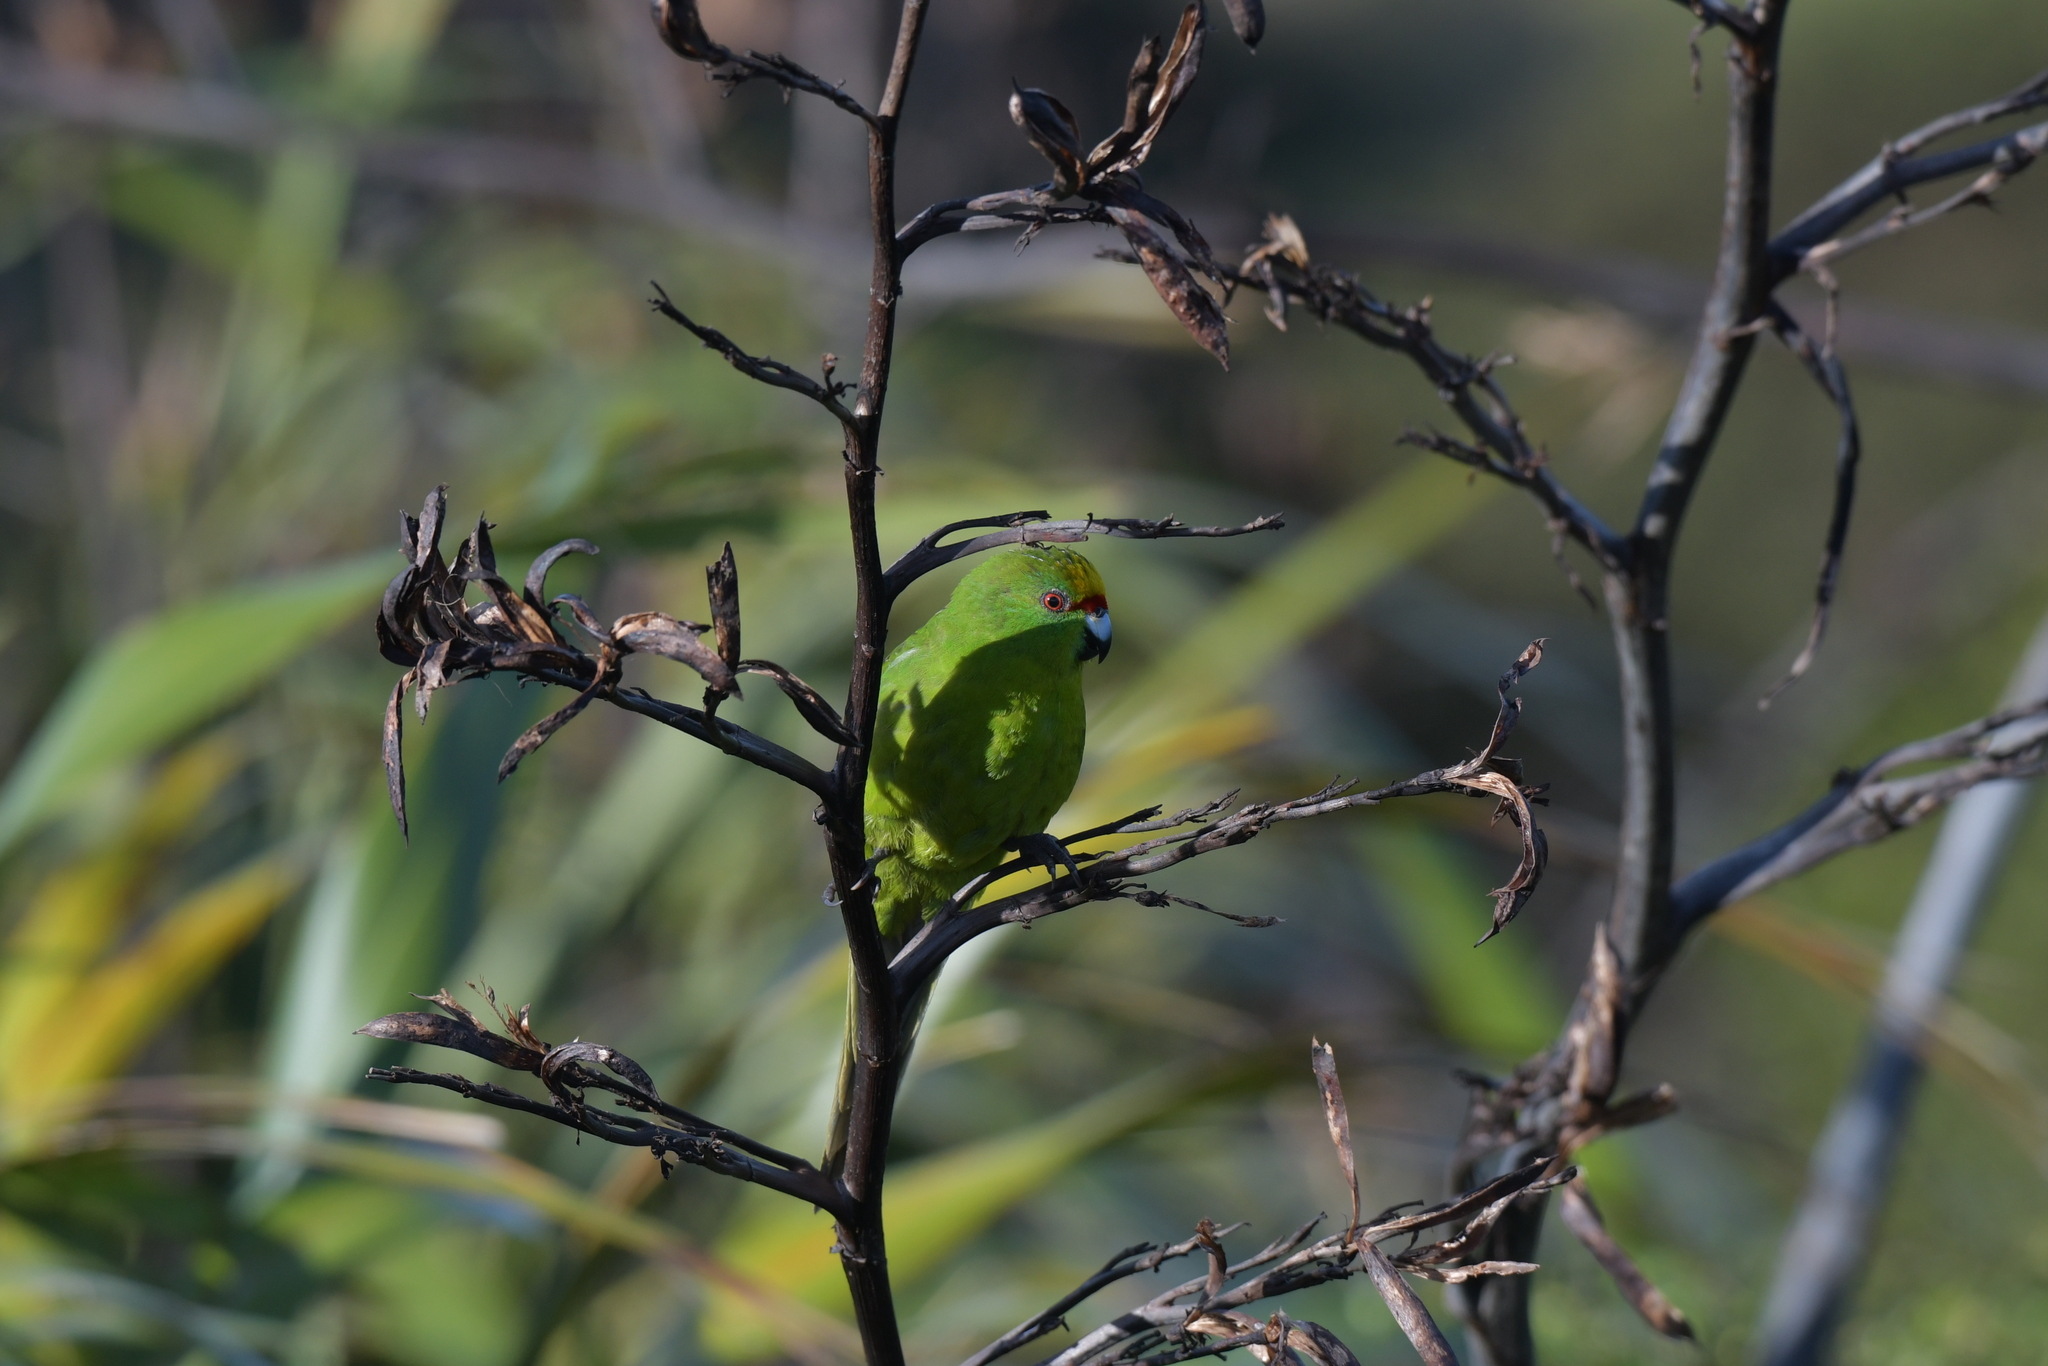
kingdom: Animalia
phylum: Chordata
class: Aves
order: Psittaciformes
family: Psittacidae
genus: Cyanoramphus
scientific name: Cyanoramphus auriceps
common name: Yellow-crowned parakeet
